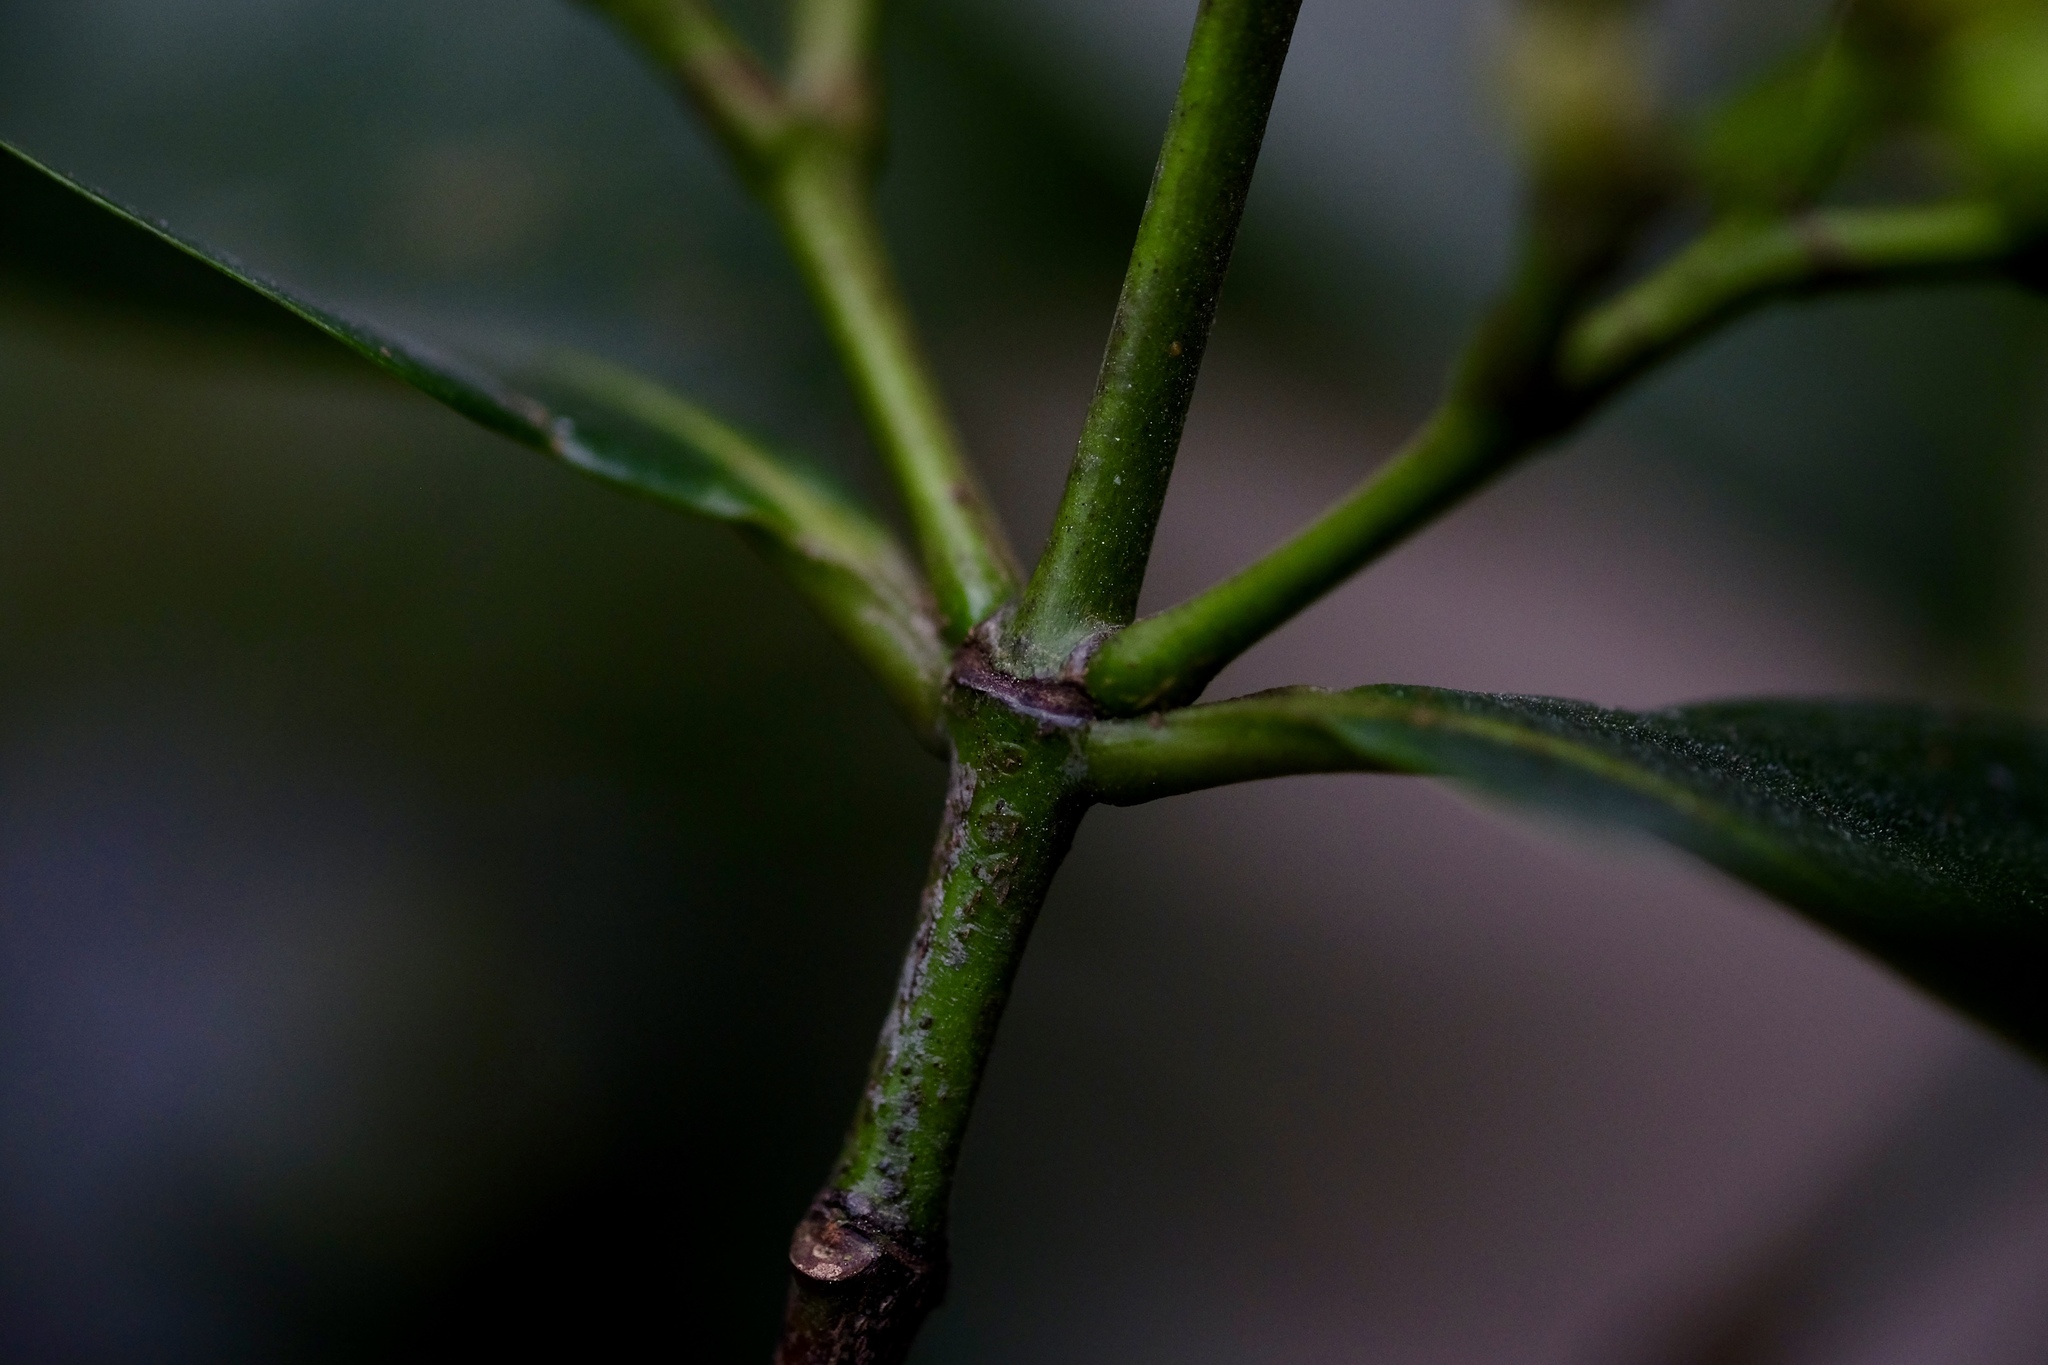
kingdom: Plantae
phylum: Tracheophyta
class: Magnoliopsida
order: Malpighiales
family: Rhizophoraceae
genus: Carallia
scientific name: Carallia brachiata
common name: Carallawood
